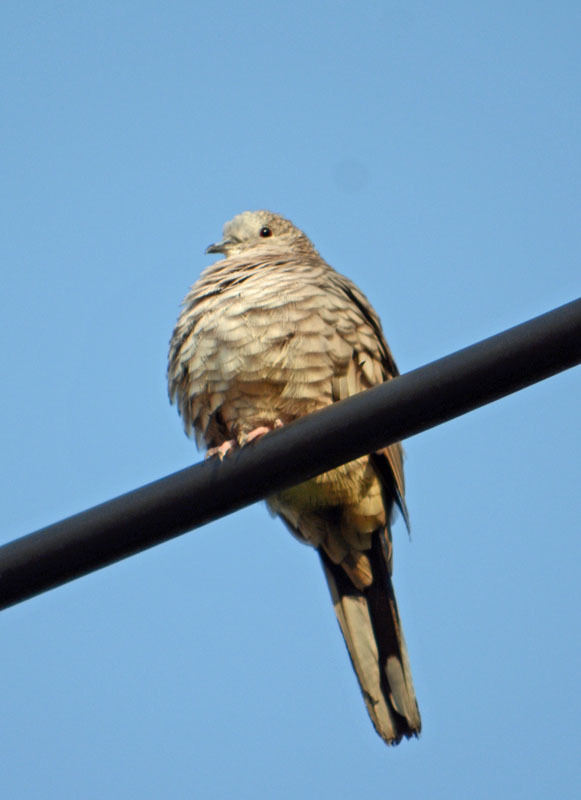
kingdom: Animalia
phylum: Chordata
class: Aves
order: Columbiformes
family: Columbidae
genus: Columbina
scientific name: Columbina inca
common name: Inca dove
